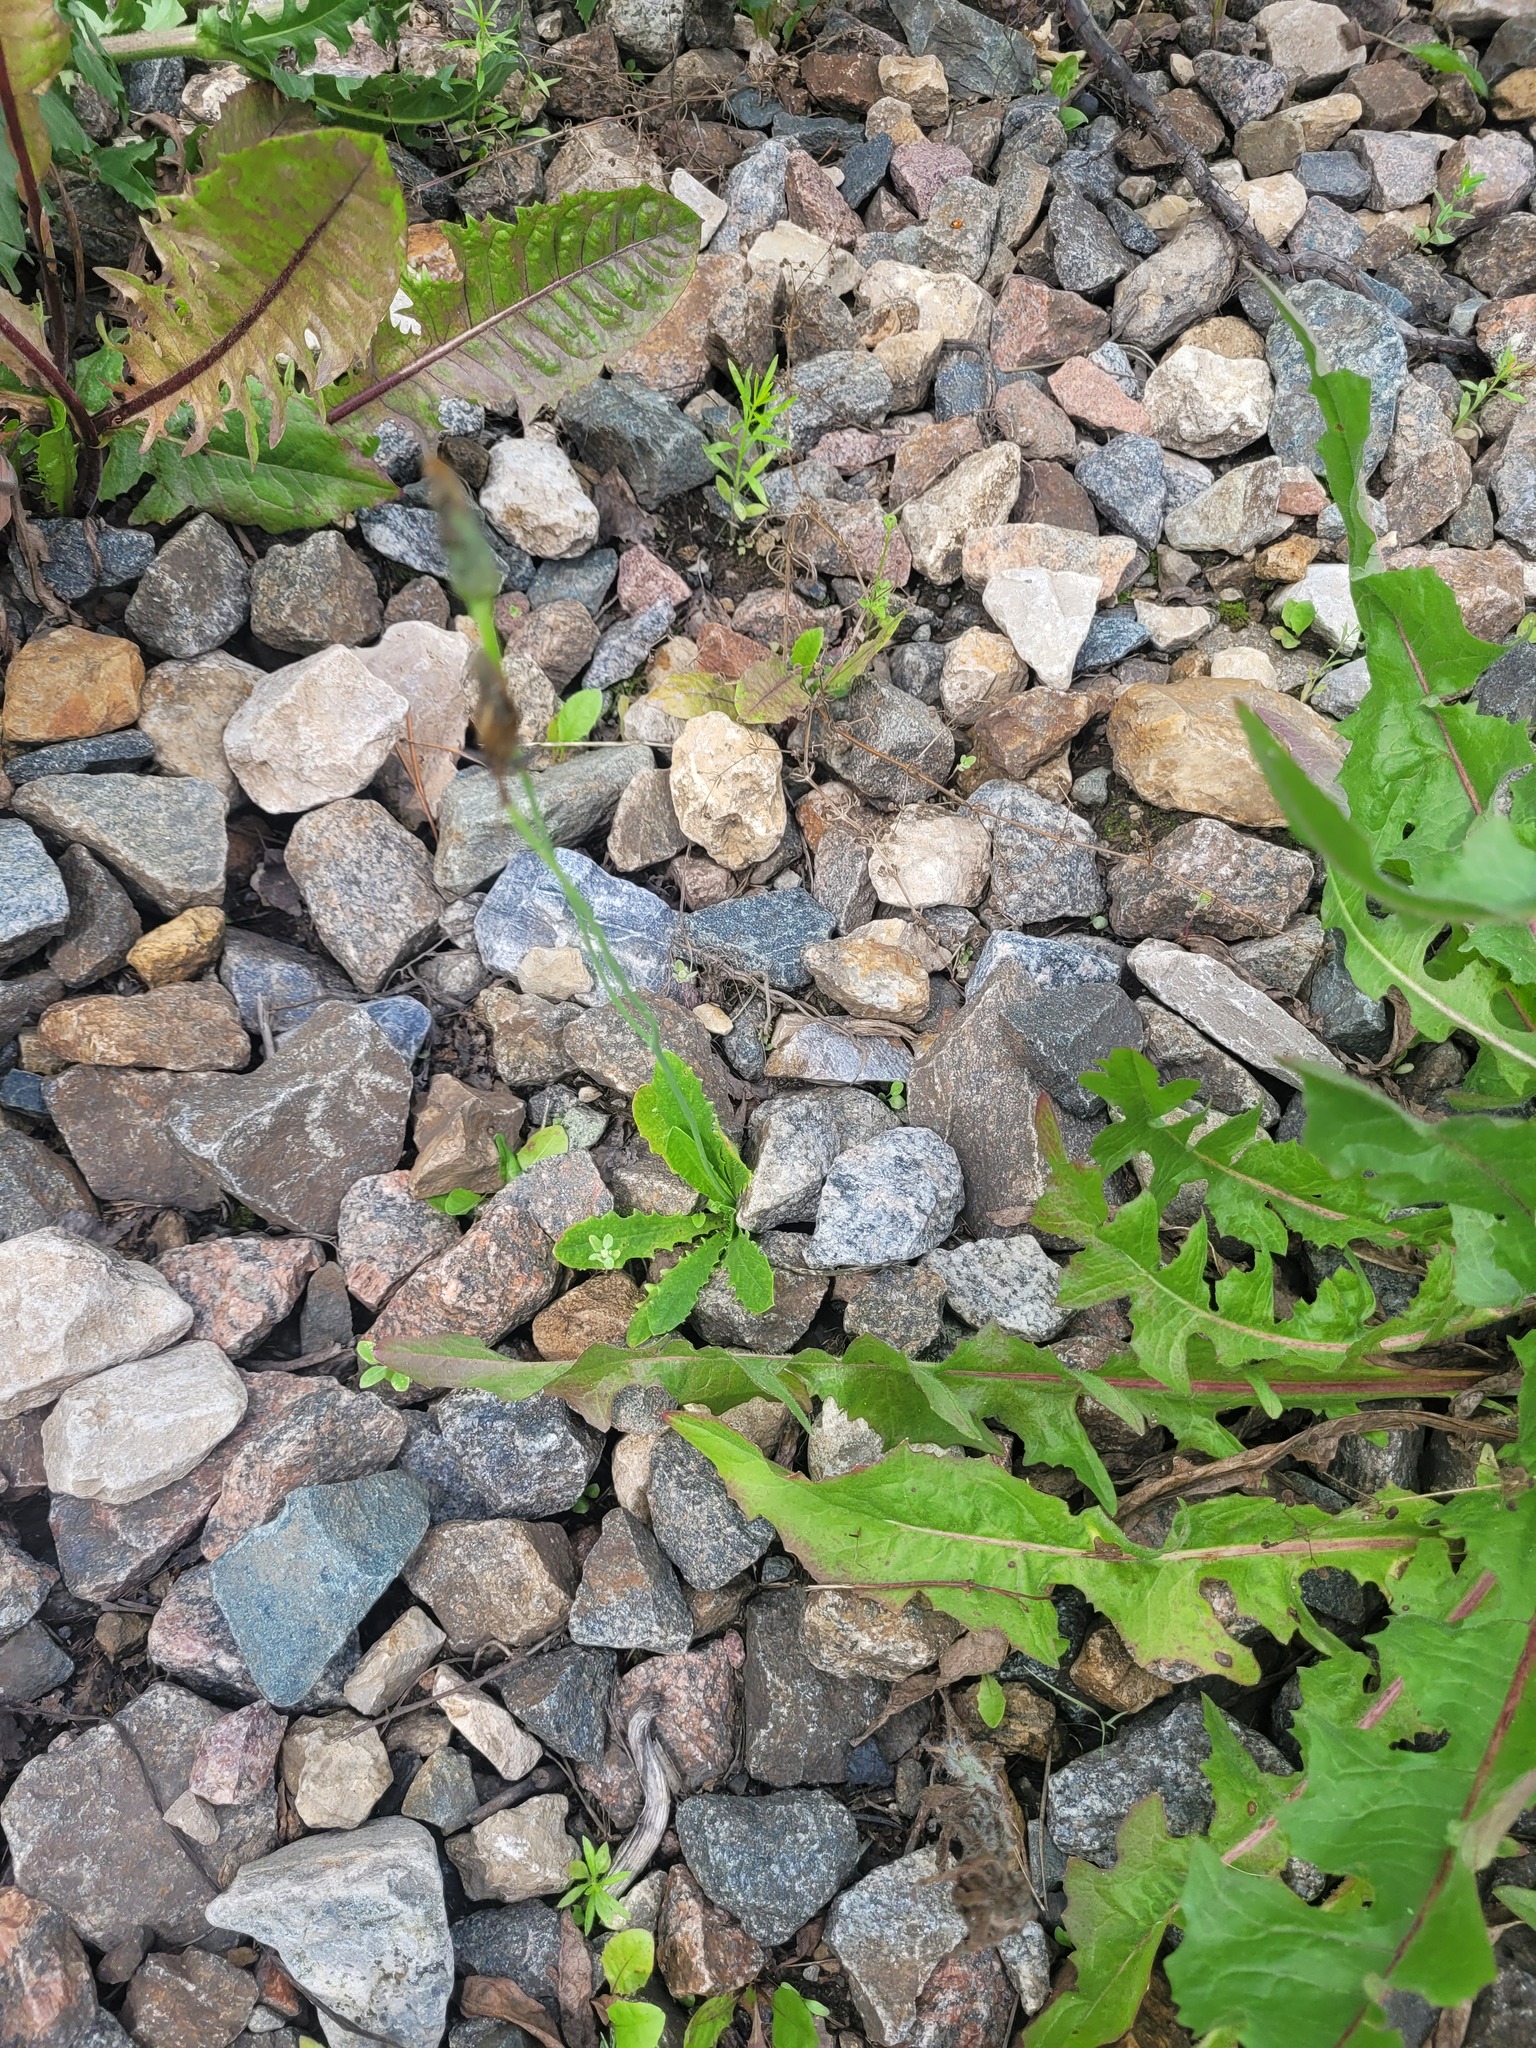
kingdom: Plantae
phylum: Tracheophyta
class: Magnoliopsida
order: Asterales
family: Asteraceae
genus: Hypochaeris
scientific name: Hypochaeris radicata
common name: Flatweed
